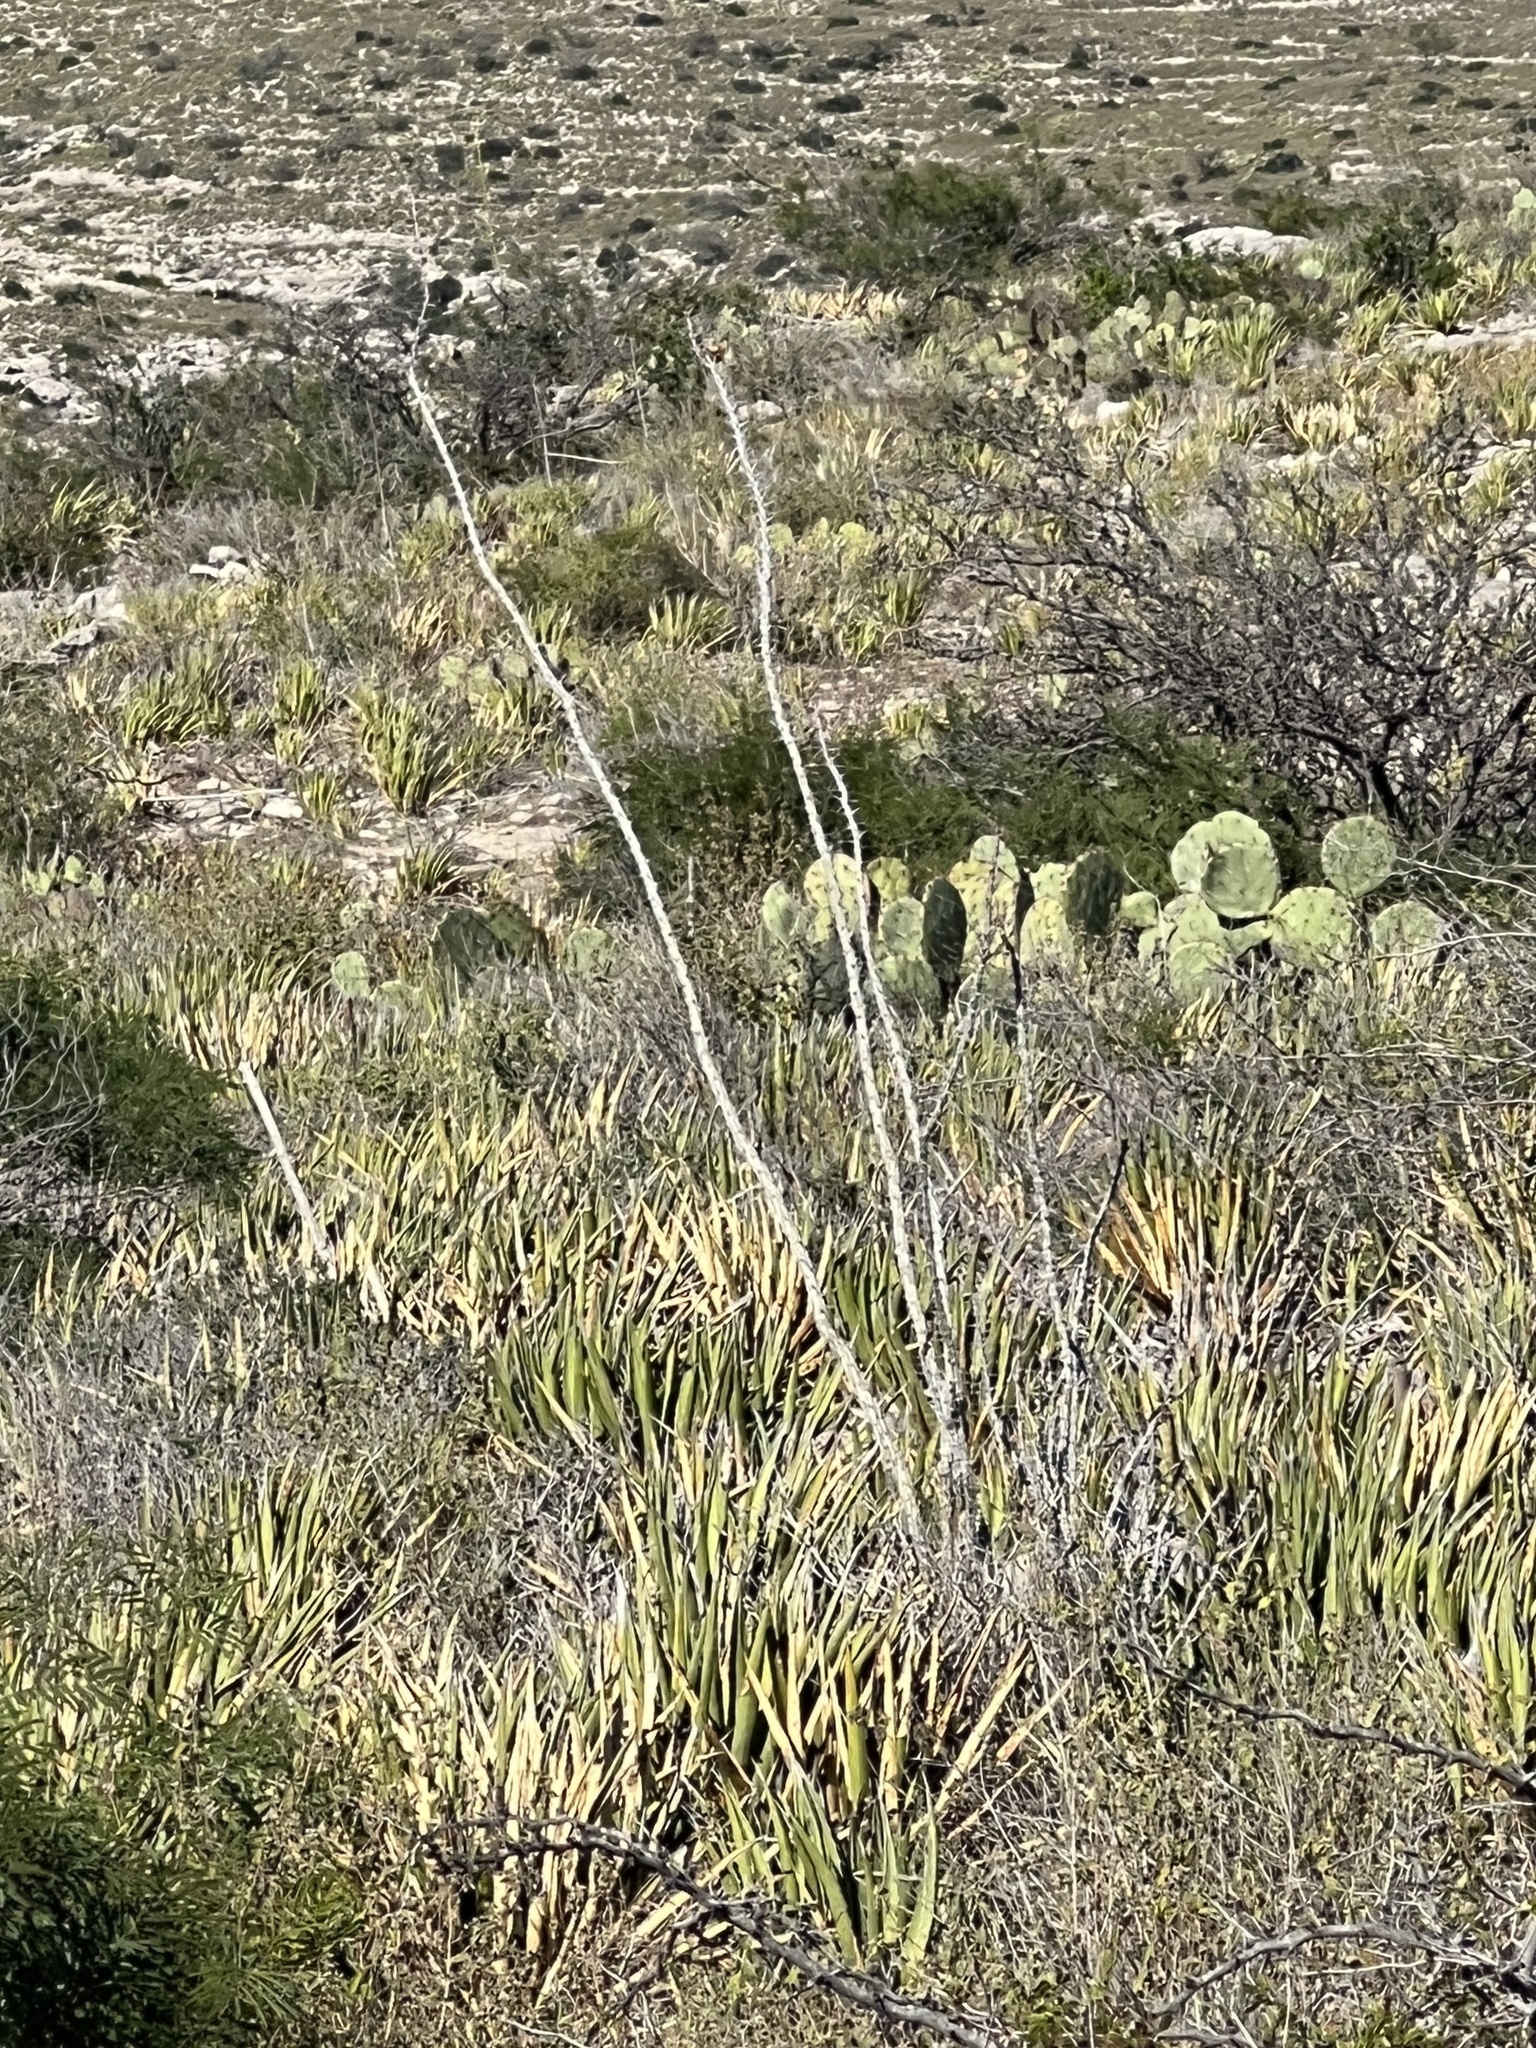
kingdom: Plantae
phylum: Tracheophyta
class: Magnoliopsida
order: Ericales
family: Fouquieriaceae
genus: Fouquieria
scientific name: Fouquieria splendens
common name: Vine-cactus
